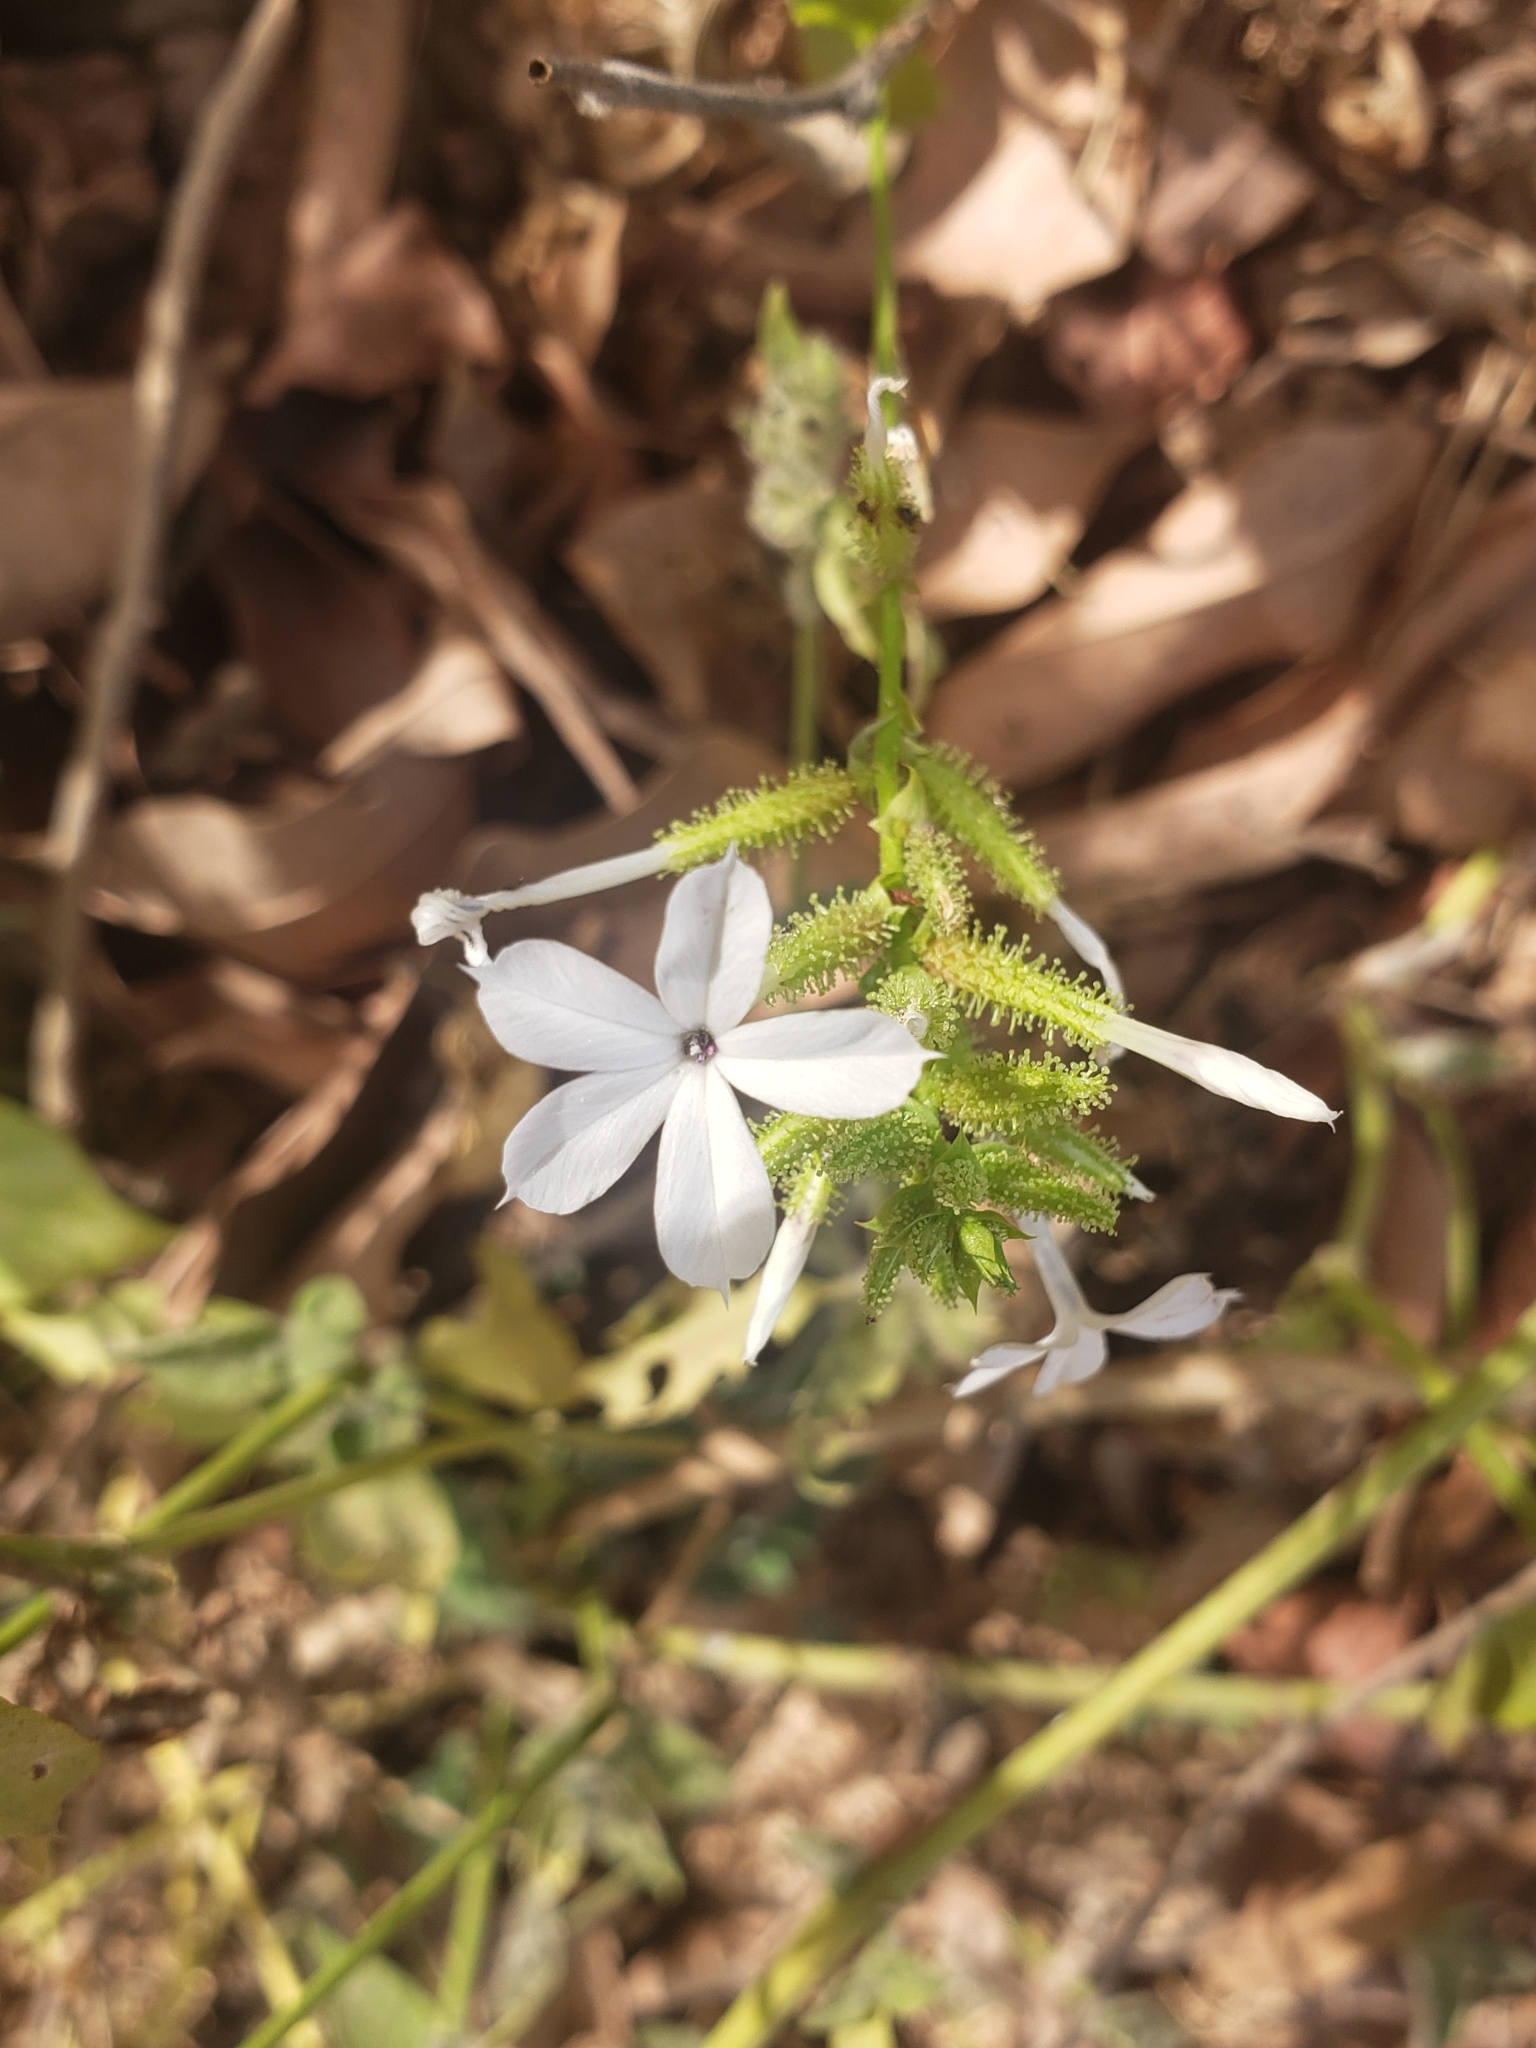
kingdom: Plantae
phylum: Tracheophyta
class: Magnoliopsida
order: Caryophyllales
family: Plumbaginaceae
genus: Plumbago
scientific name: Plumbago zeylanica
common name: Doctorbush
